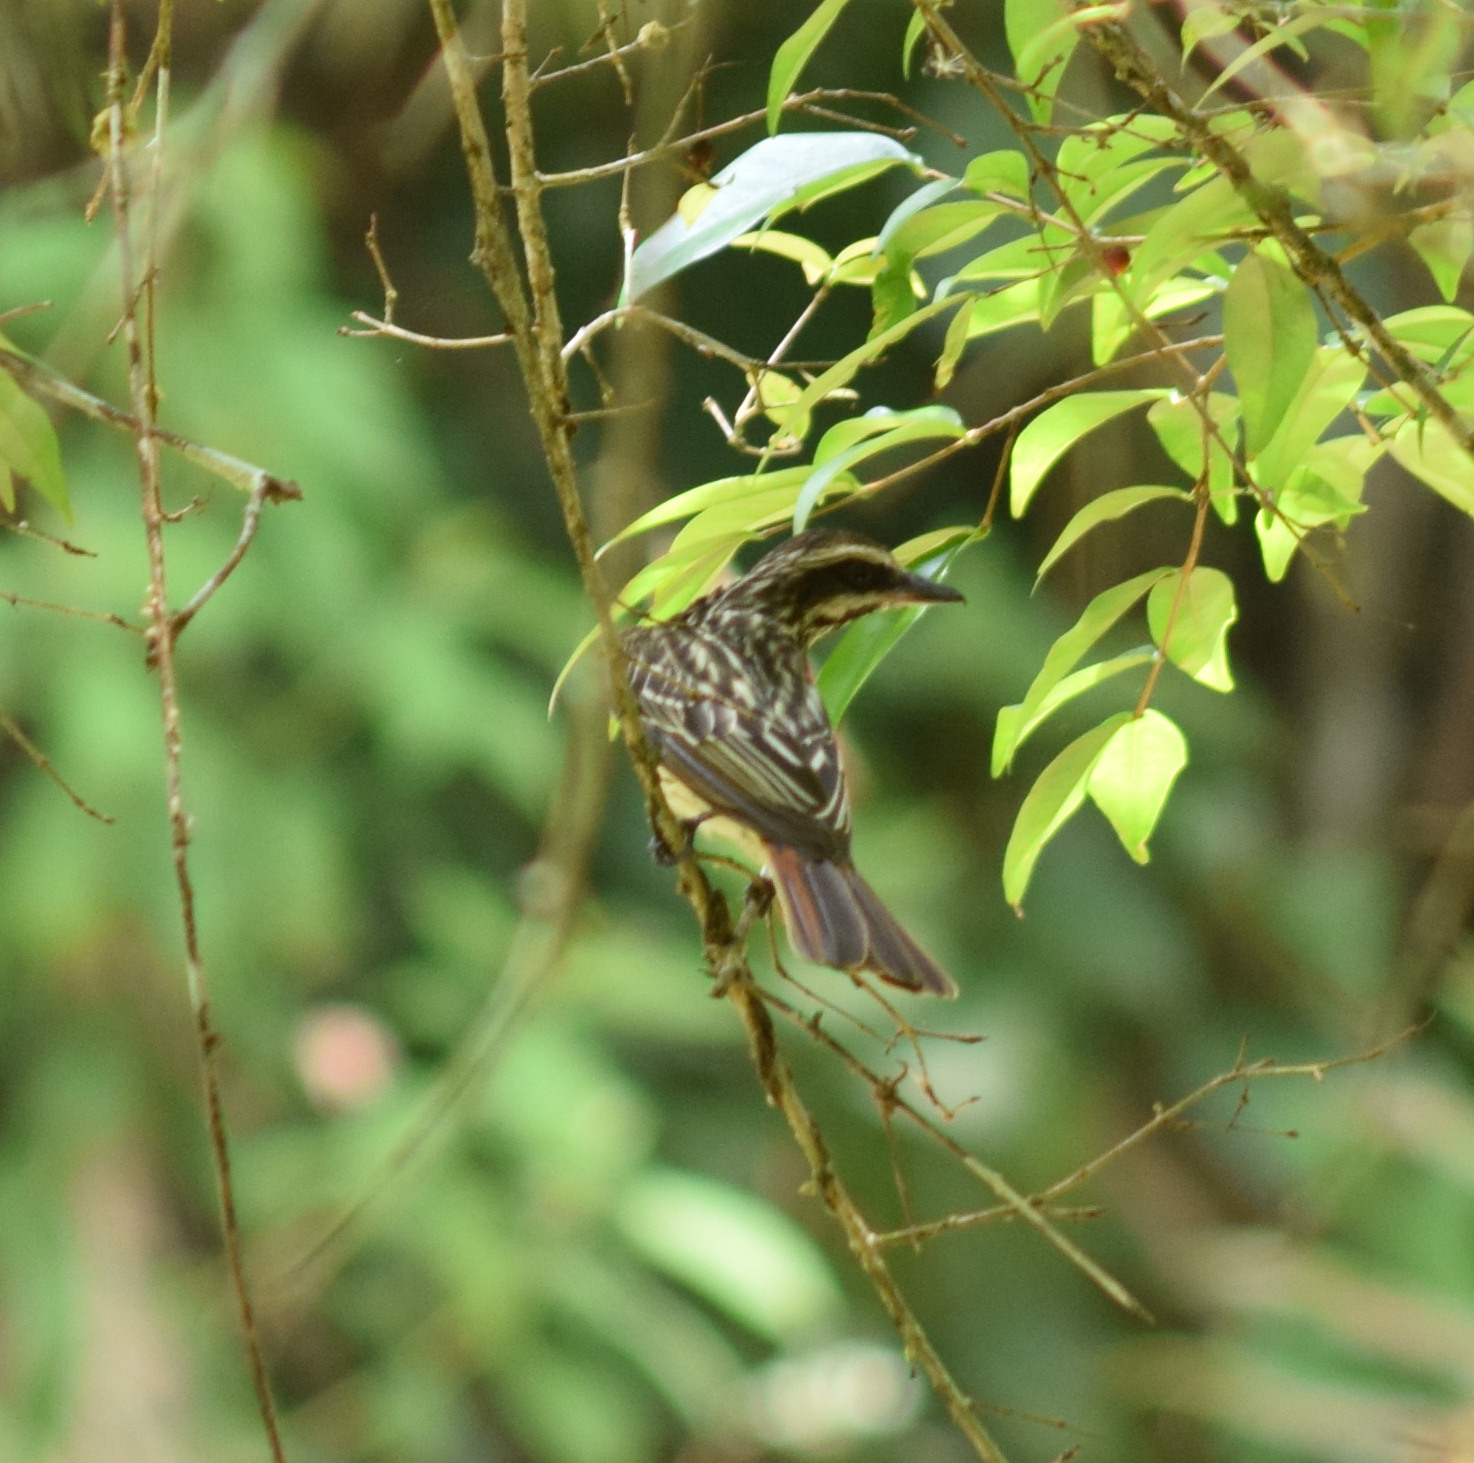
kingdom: Animalia
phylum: Chordata
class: Aves
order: Passeriformes
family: Tyrannidae
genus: Myiodynastes
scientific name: Myiodynastes maculatus
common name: Streaked flycatcher
